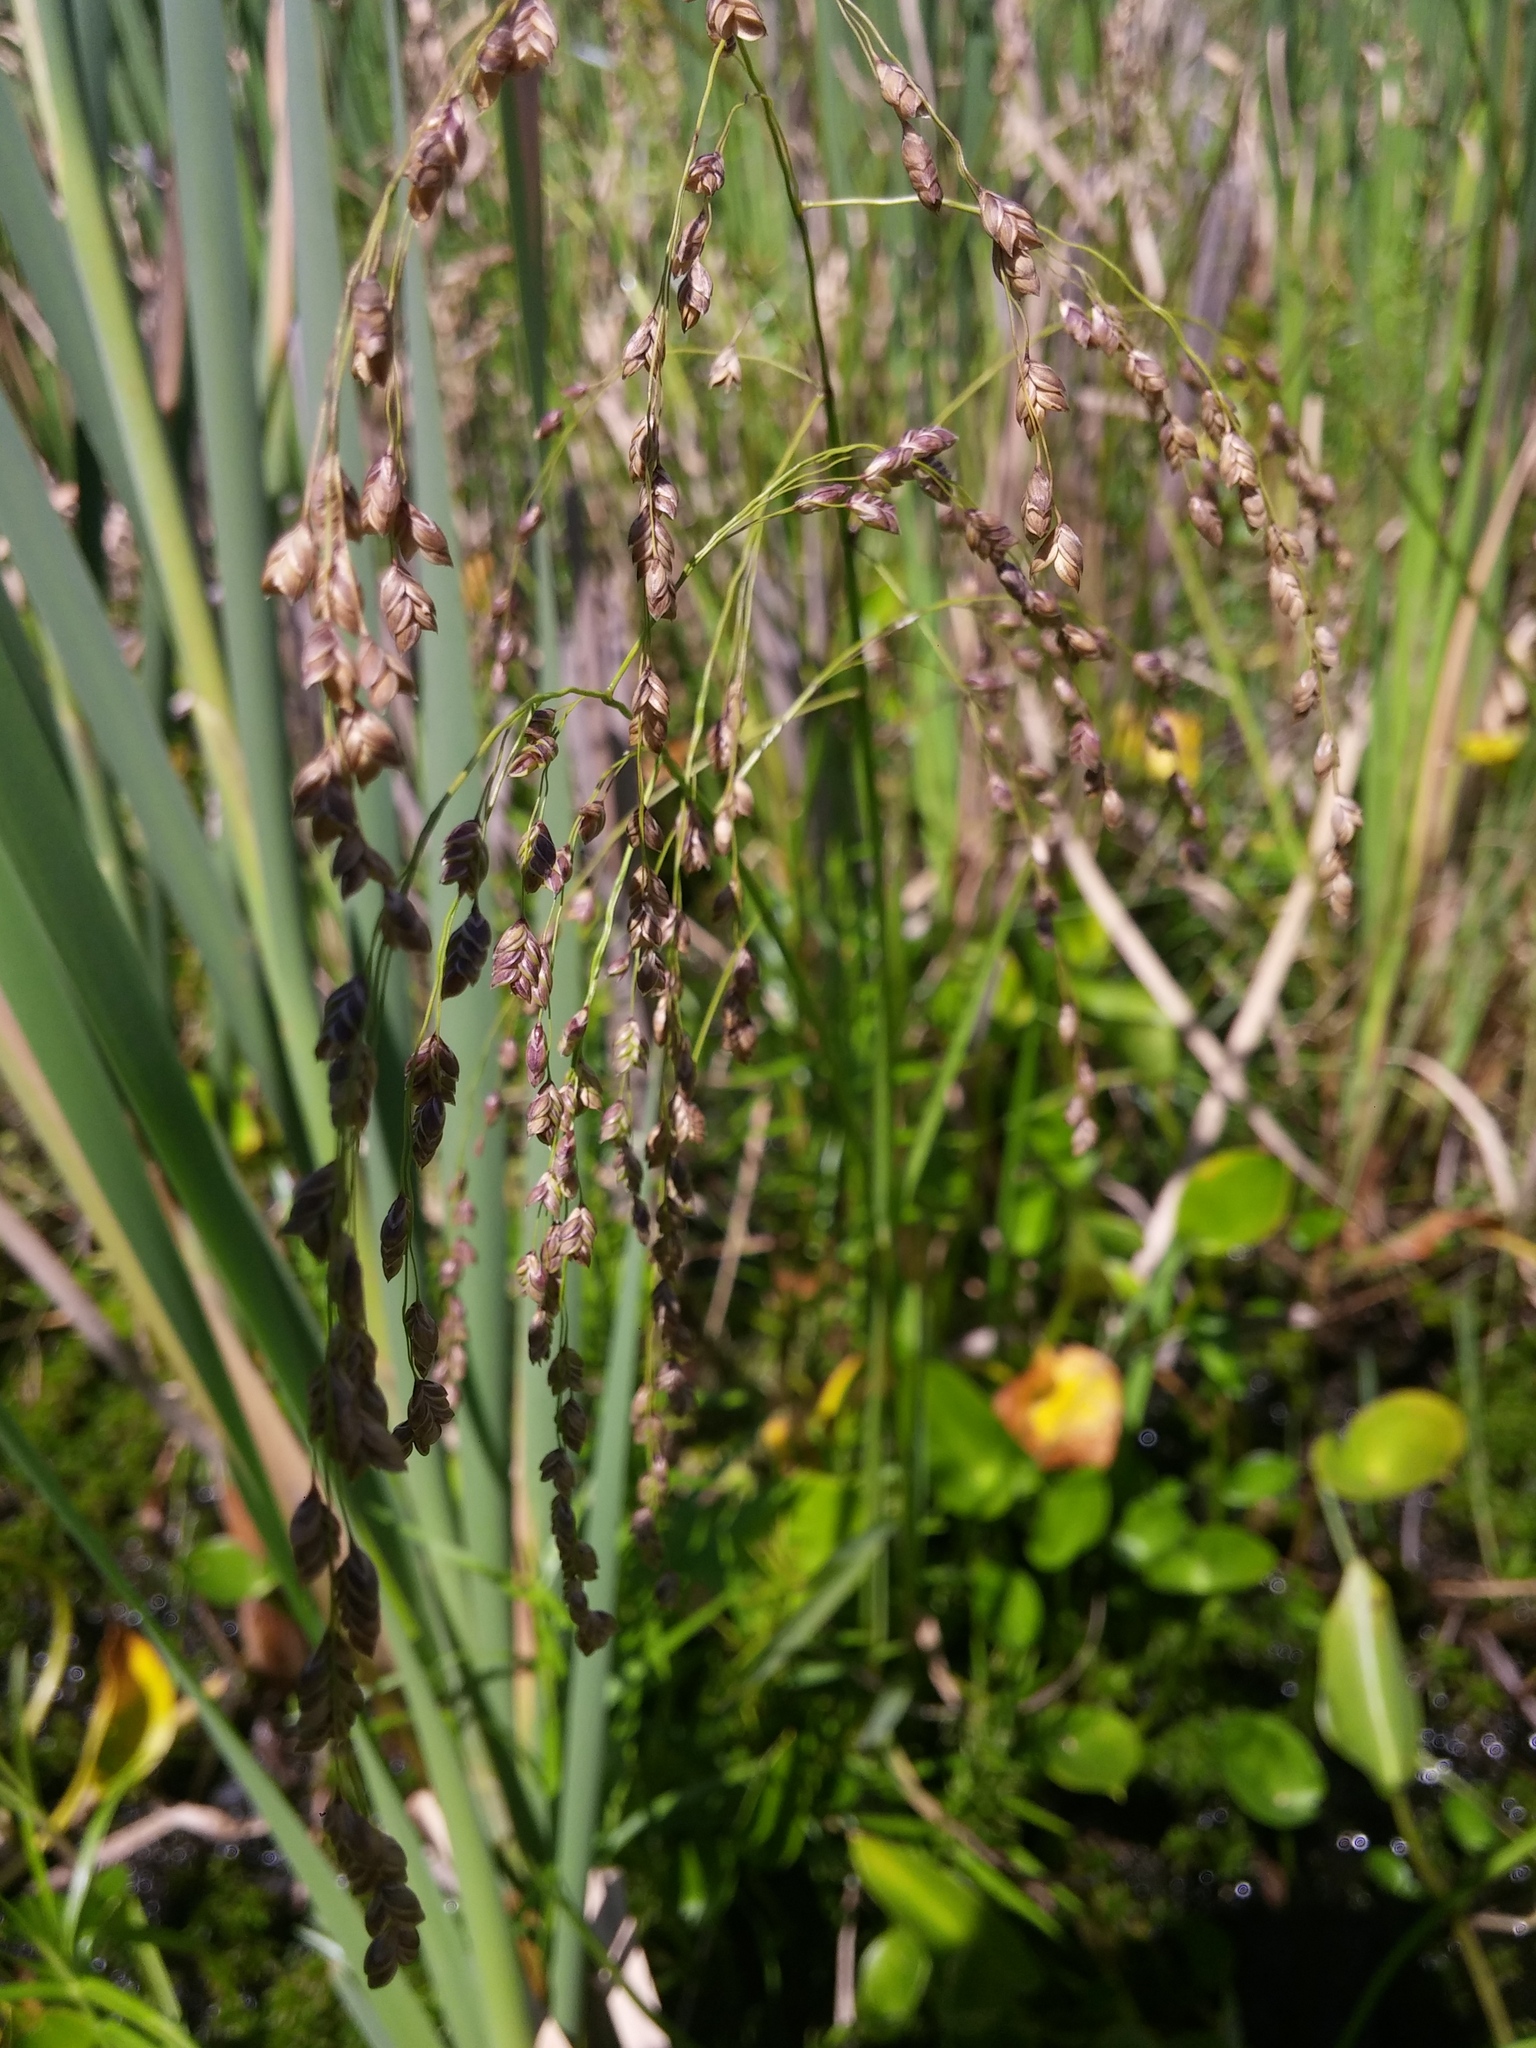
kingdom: Plantae
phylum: Tracheophyta
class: Liliopsida
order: Poales
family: Poaceae
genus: Glyceria
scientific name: Glyceria canadensis
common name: Canada mannagrass
